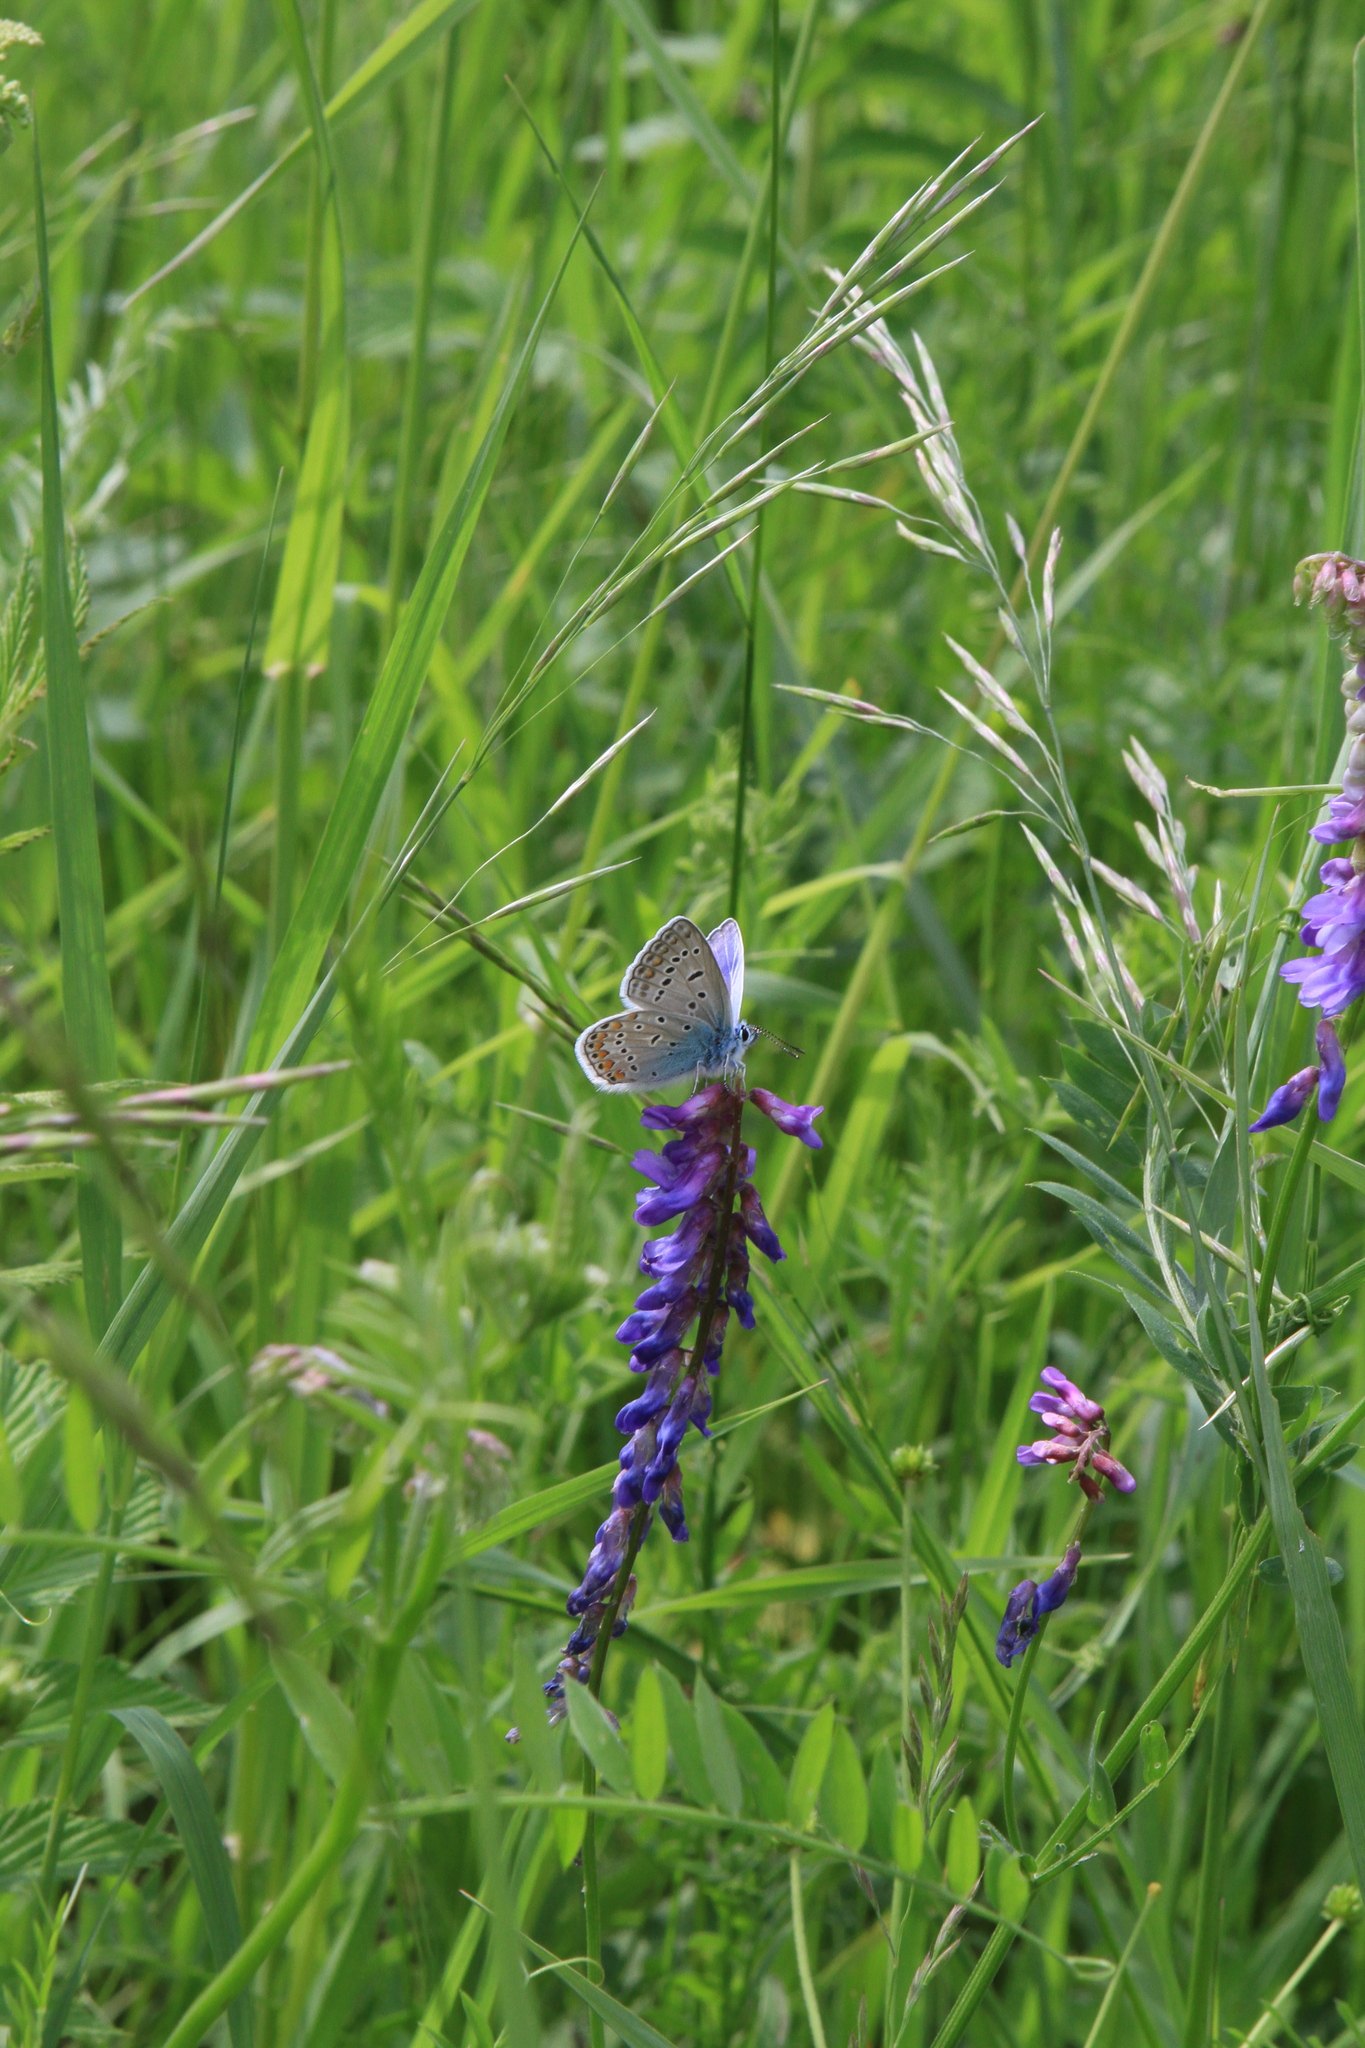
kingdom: Animalia
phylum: Arthropoda
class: Insecta
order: Lepidoptera
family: Lycaenidae
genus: Polyommatus
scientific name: Polyommatus icarus
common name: Common blue
